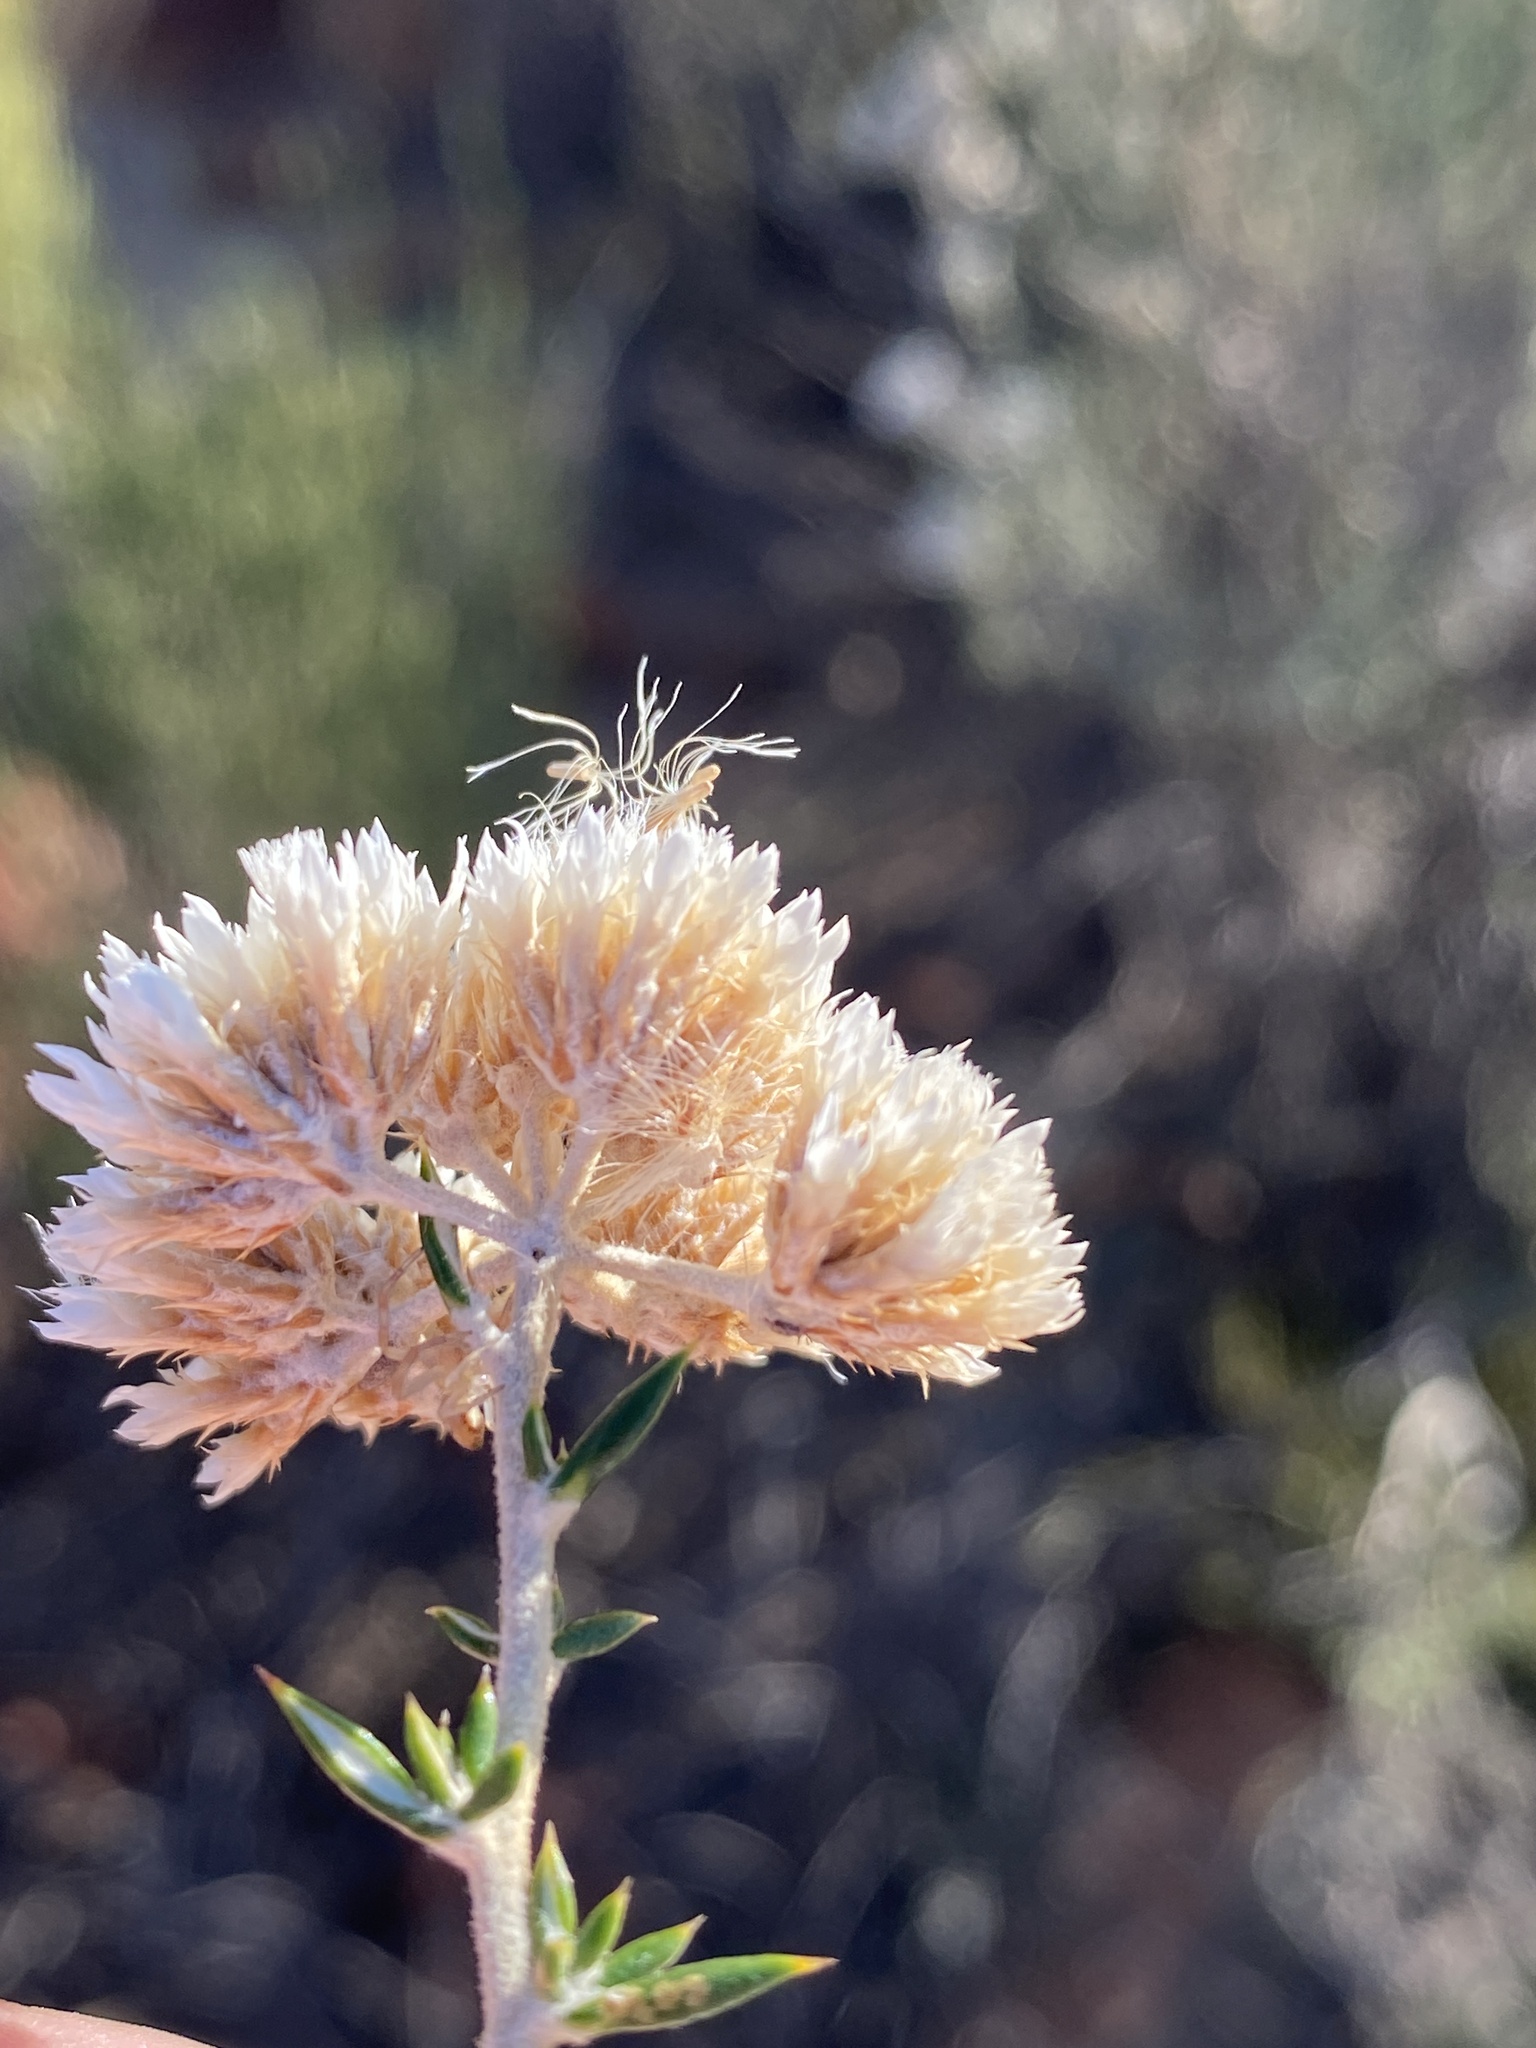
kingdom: Plantae
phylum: Tracheophyta
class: Magnoliopsida
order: Asterales
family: Asteraceae
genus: Metalasia
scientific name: Metalasia densa
